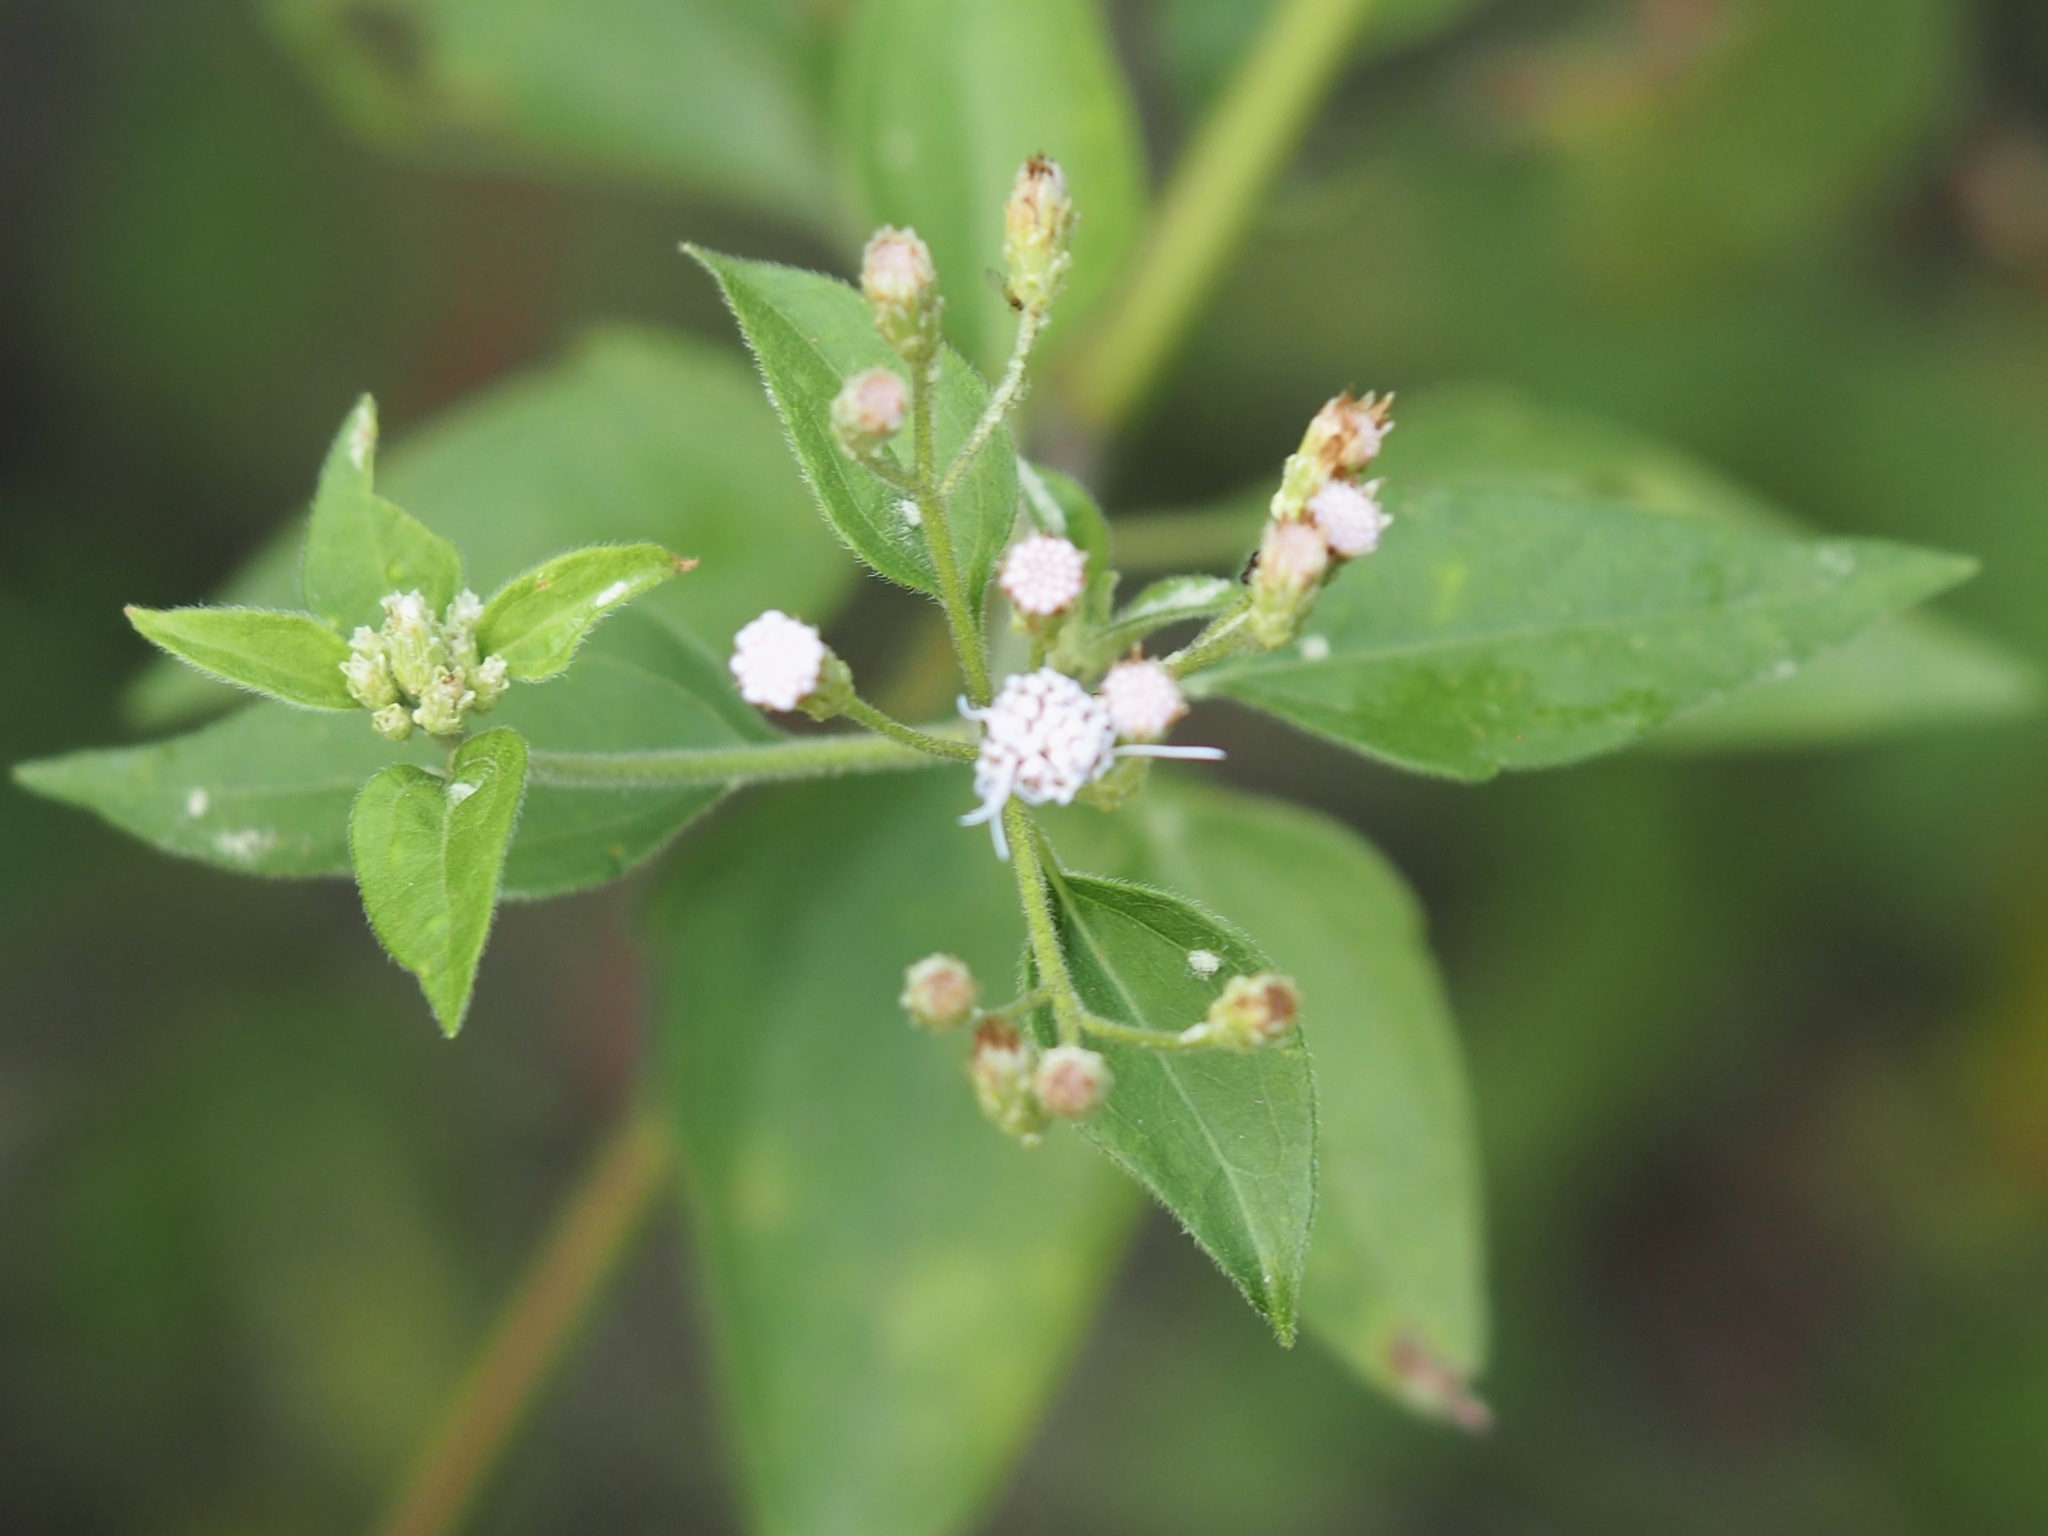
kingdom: Plantae
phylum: Tracheophyta
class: Magnoliopsida
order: Asterales
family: Asteraceae
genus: Chromolaena
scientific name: Chromolaena odorata
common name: Siamweed
